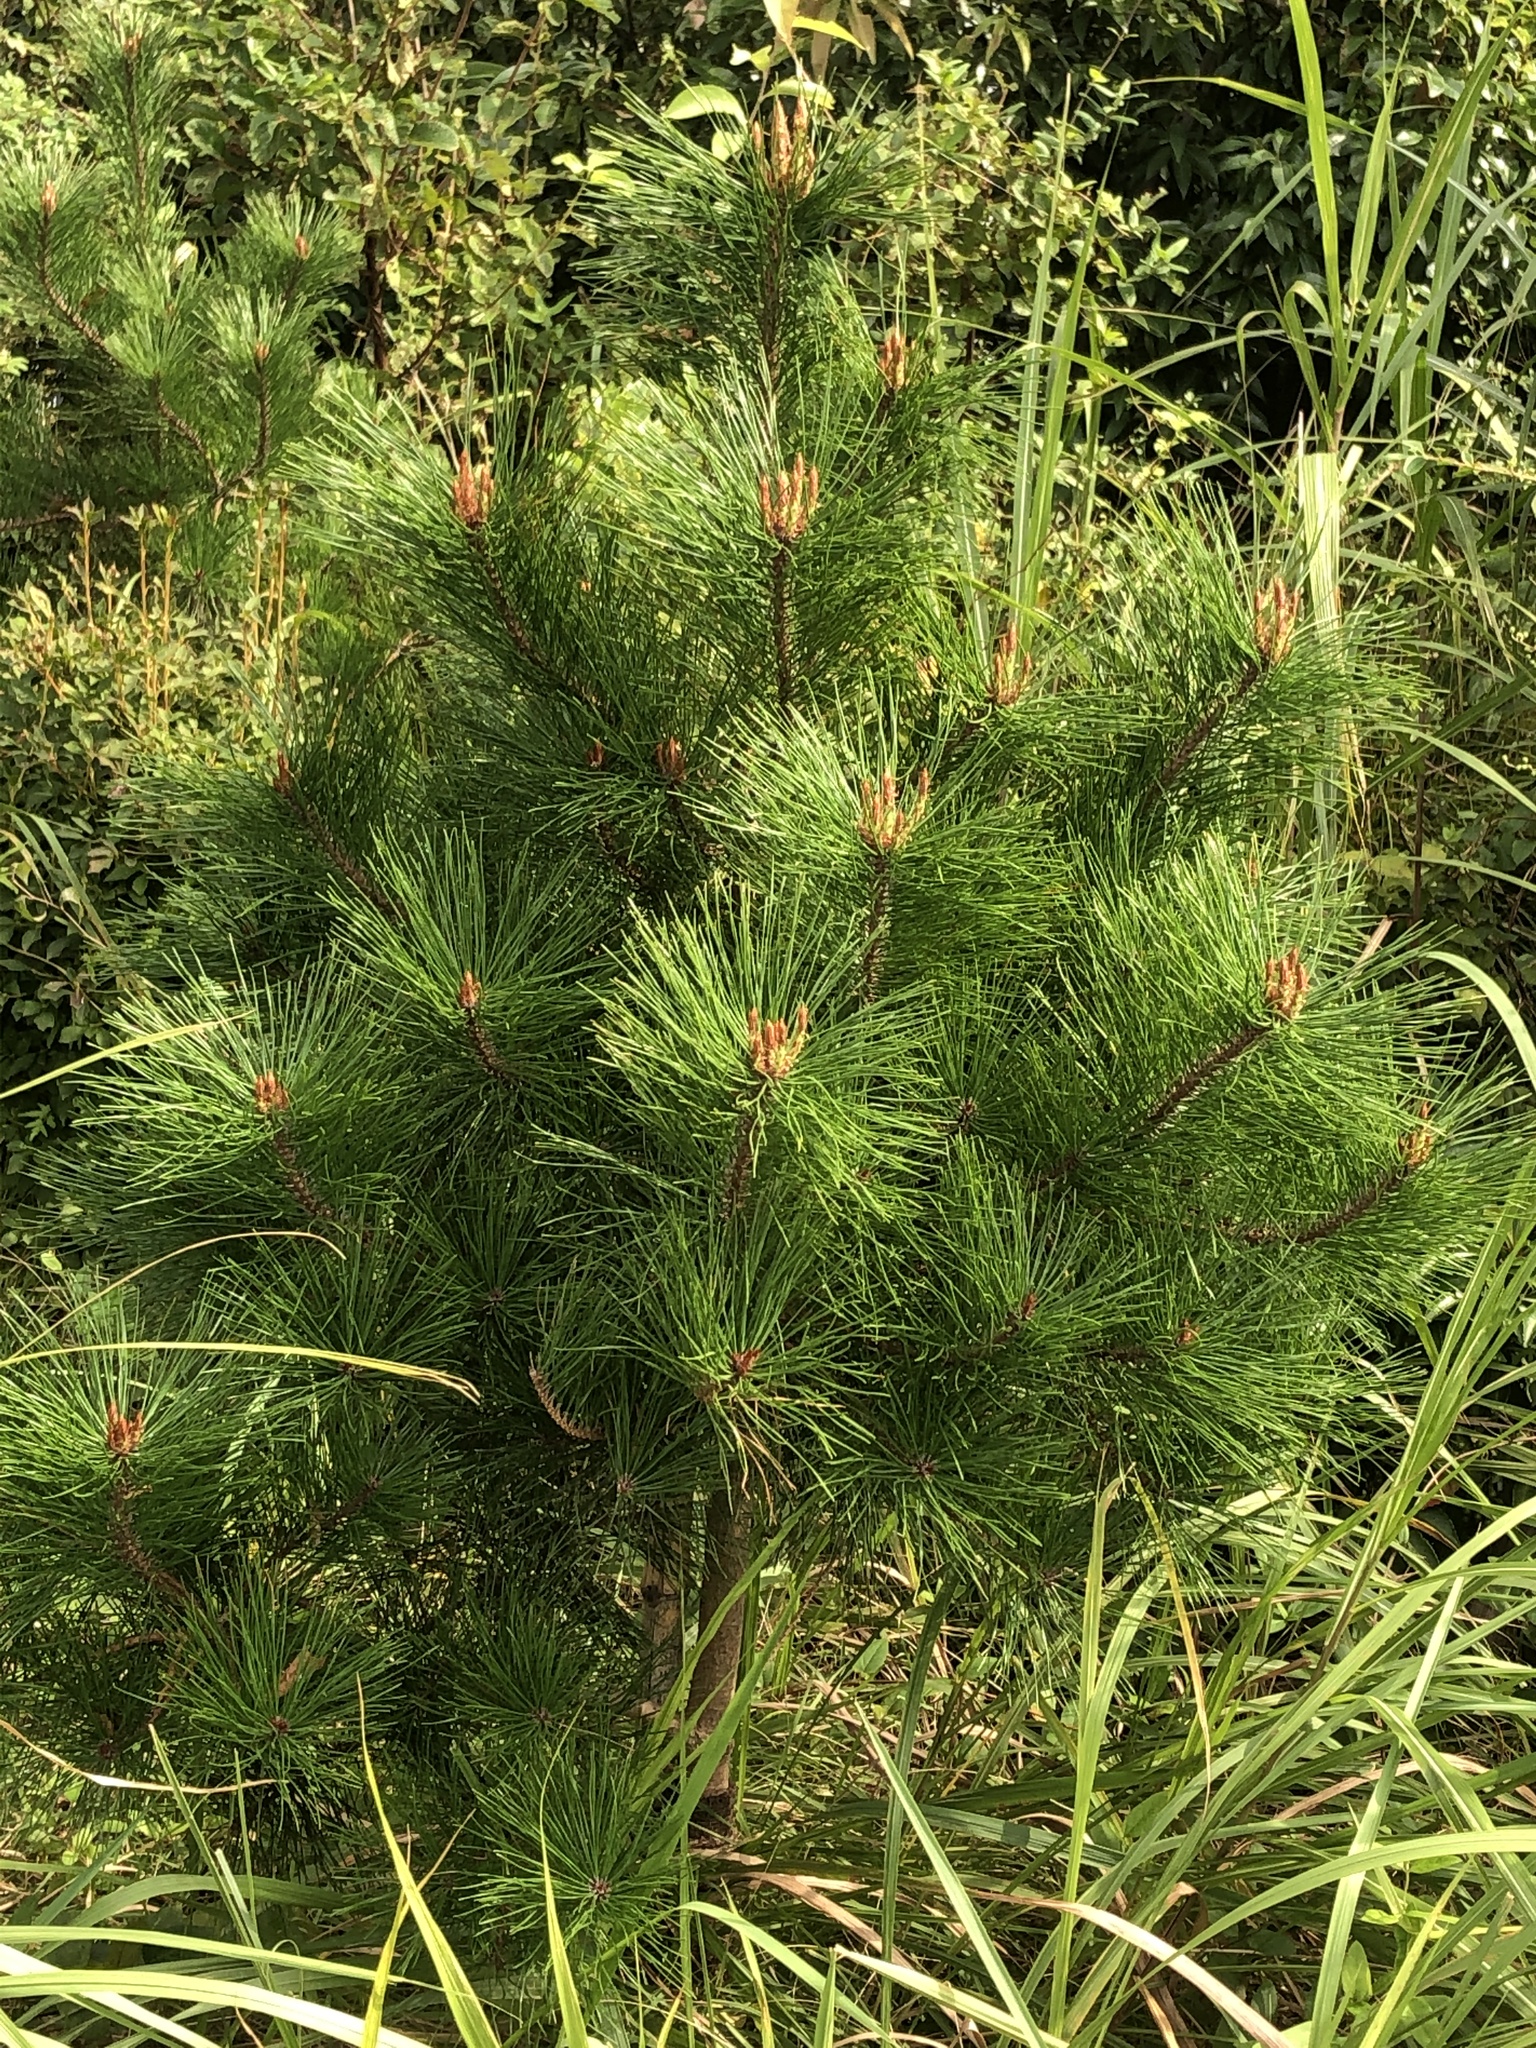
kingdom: Plantae
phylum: Tracheophyta
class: Pinopsida
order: Pinales
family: Pinaceae
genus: Pinus
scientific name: Pinus densiflora
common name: Japanese red pine
